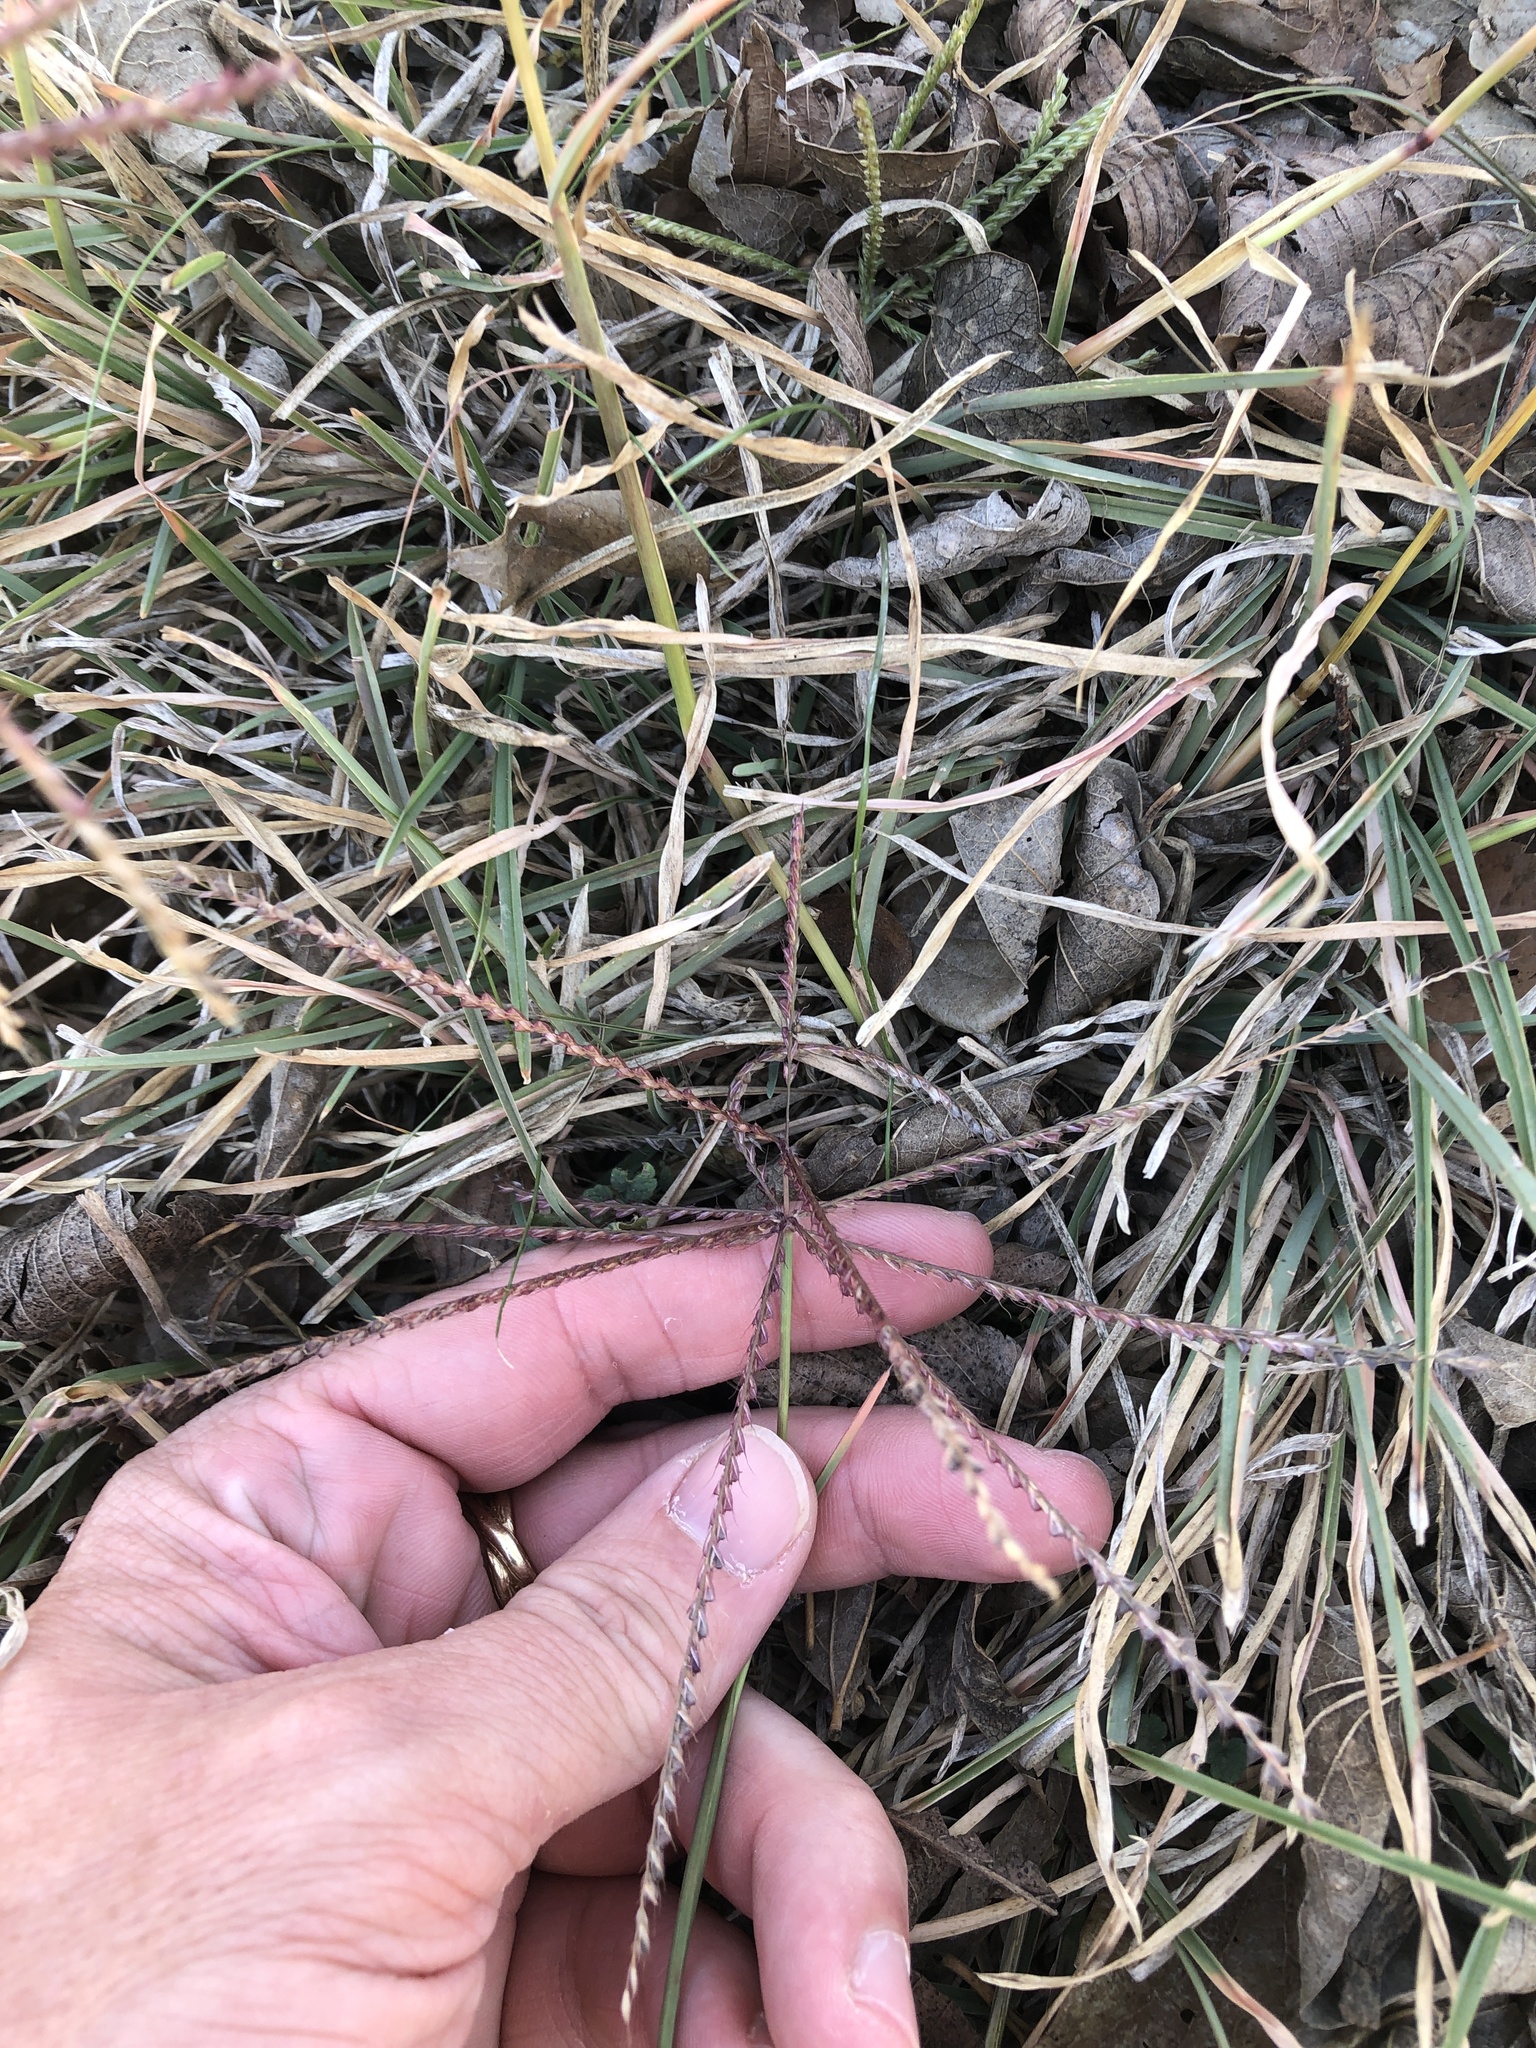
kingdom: Plantae
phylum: Tracheophyta
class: Liliopsida
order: Poales
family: Poaceae
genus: Chloris
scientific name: Chloris verticillata
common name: Tumble windmill grass
